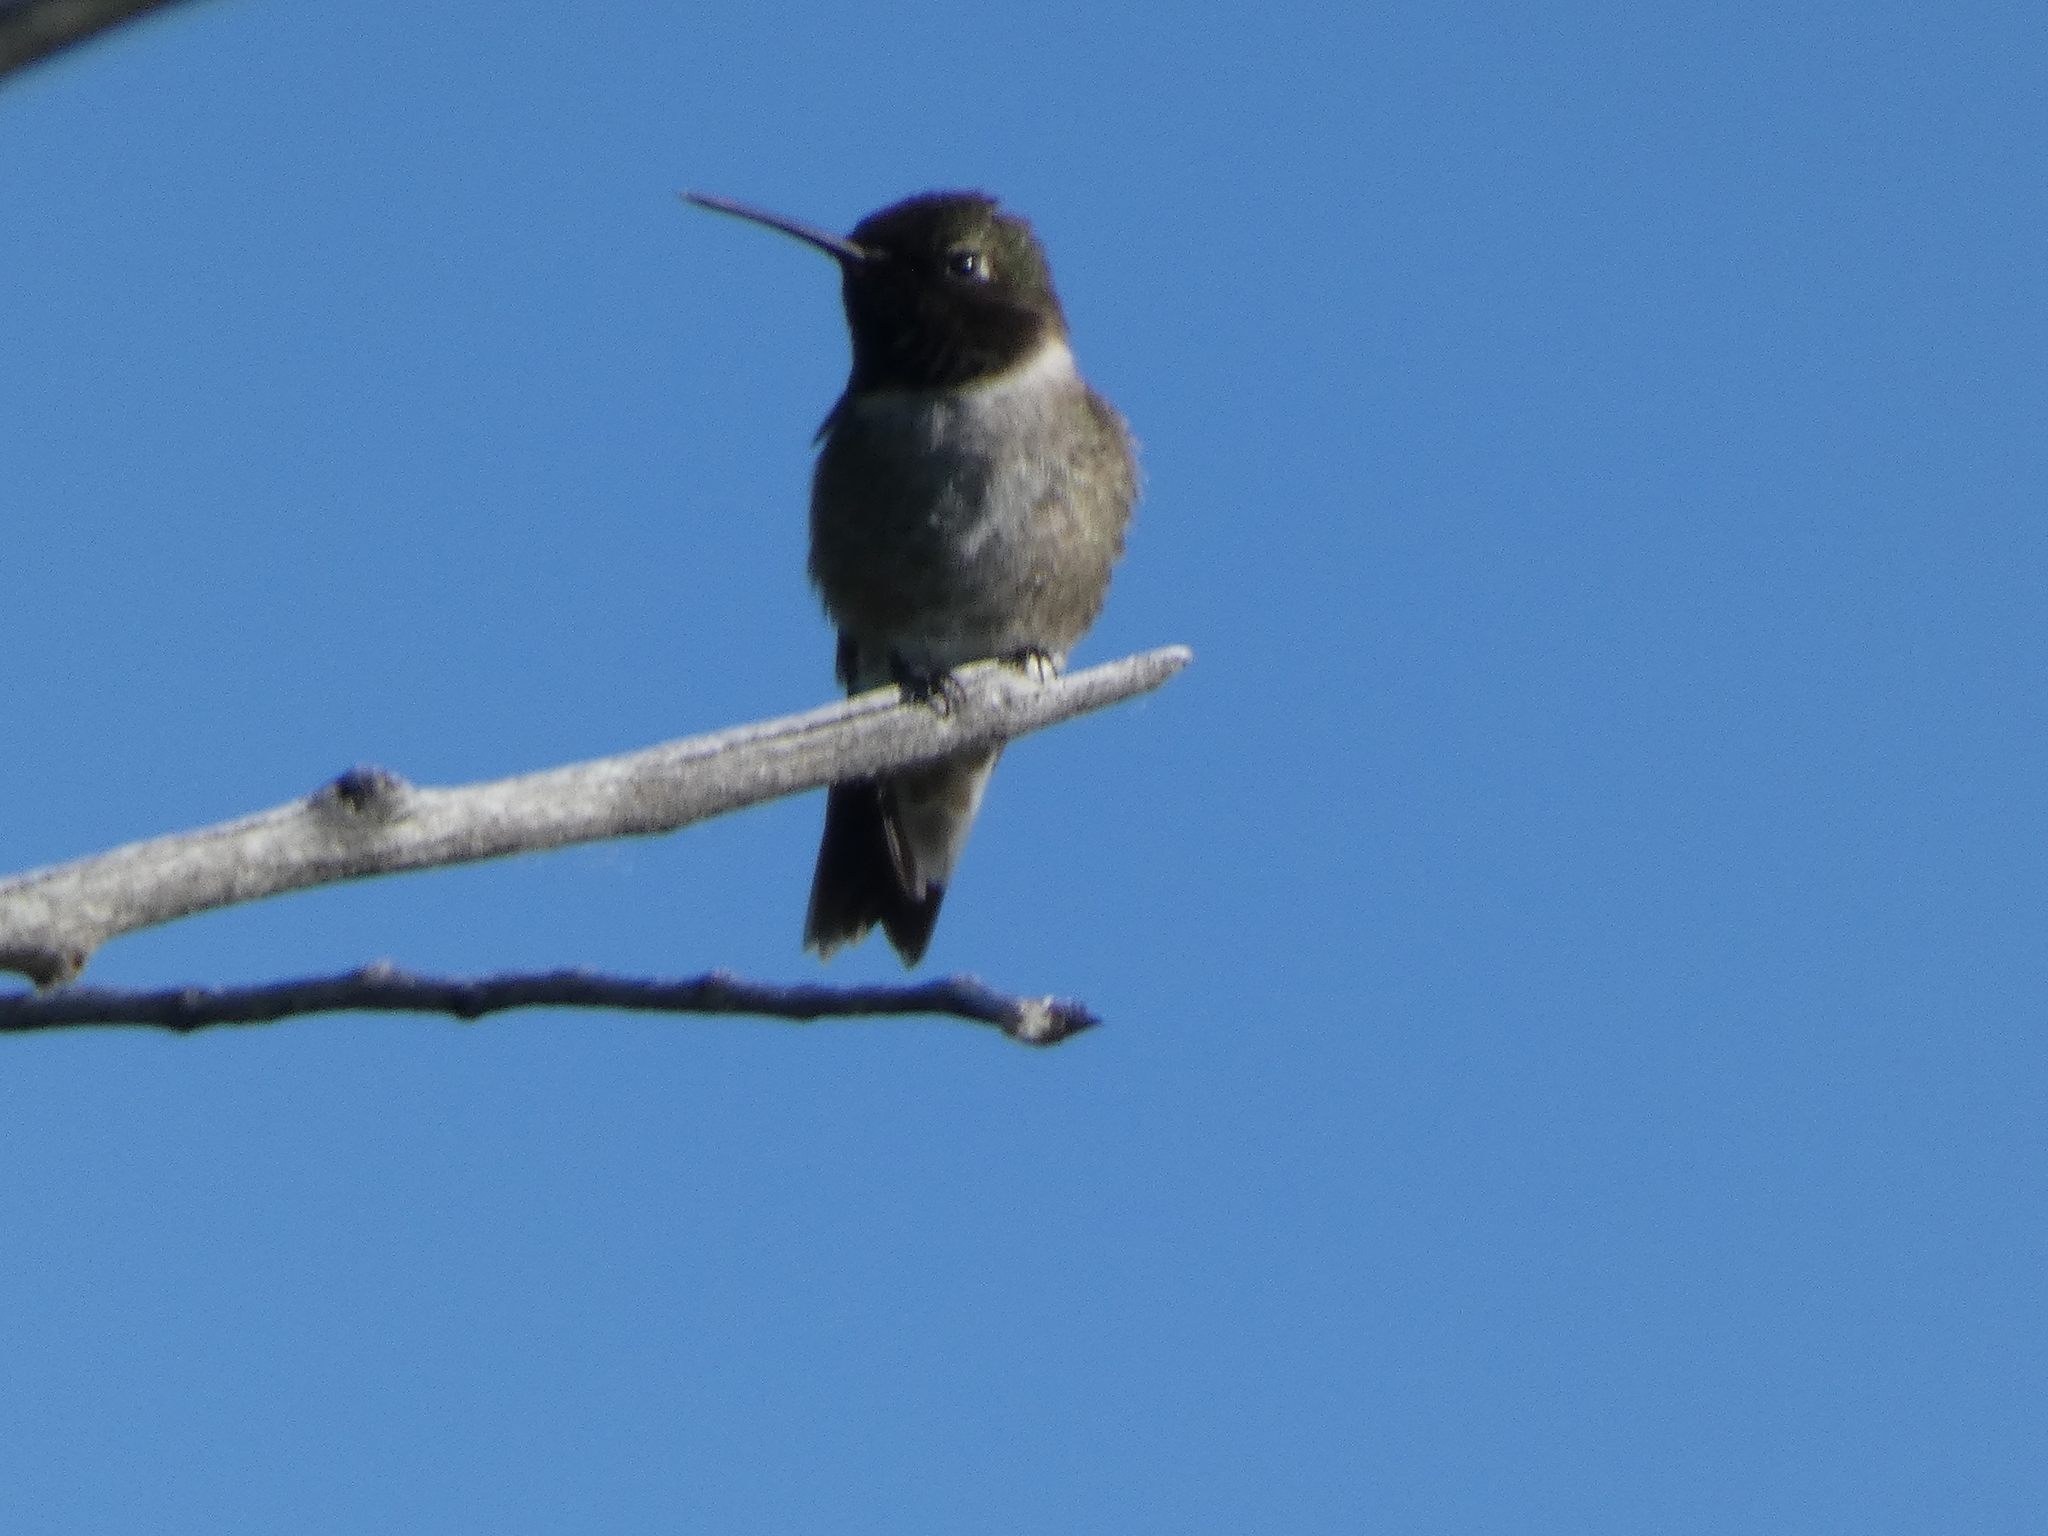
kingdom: Animalia
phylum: Chordata
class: Aves
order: Apodiformes
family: Trochilidae
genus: Selasphorus
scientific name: Selasphorus platycercus
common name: Broad-tailed hummingbird
